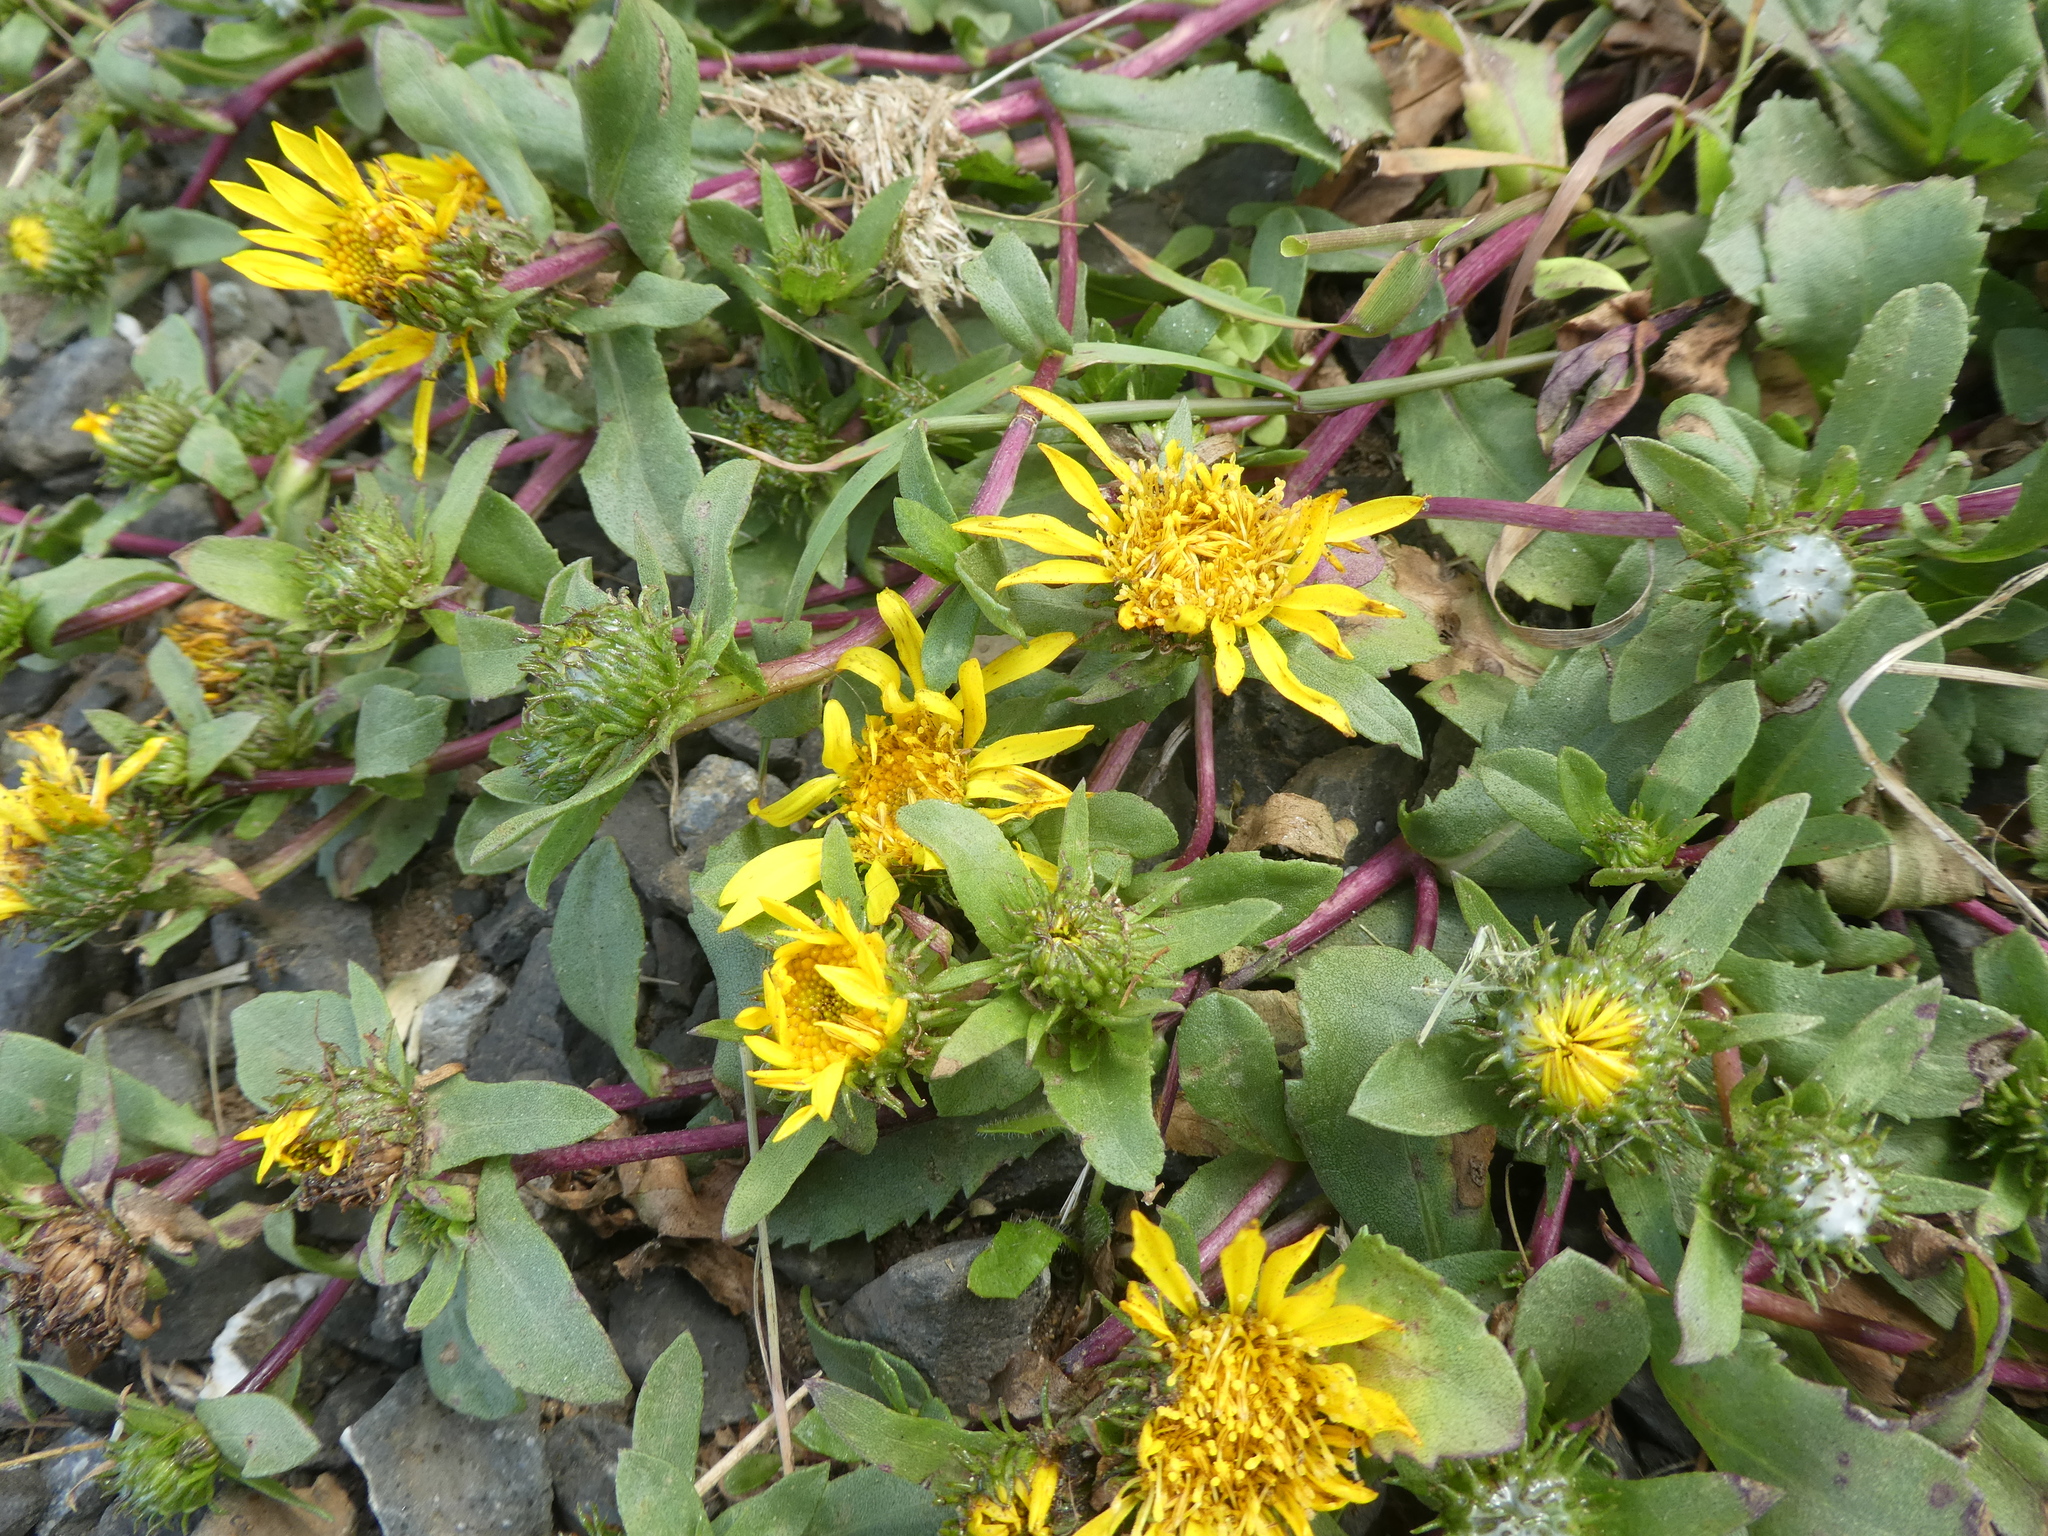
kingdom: Plantae
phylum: Tracheophyta
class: Magnoliopsida
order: Asterales
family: Asteraceae
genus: Grindelia
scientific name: Grindelia hirsutula
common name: Hairy gumweed
